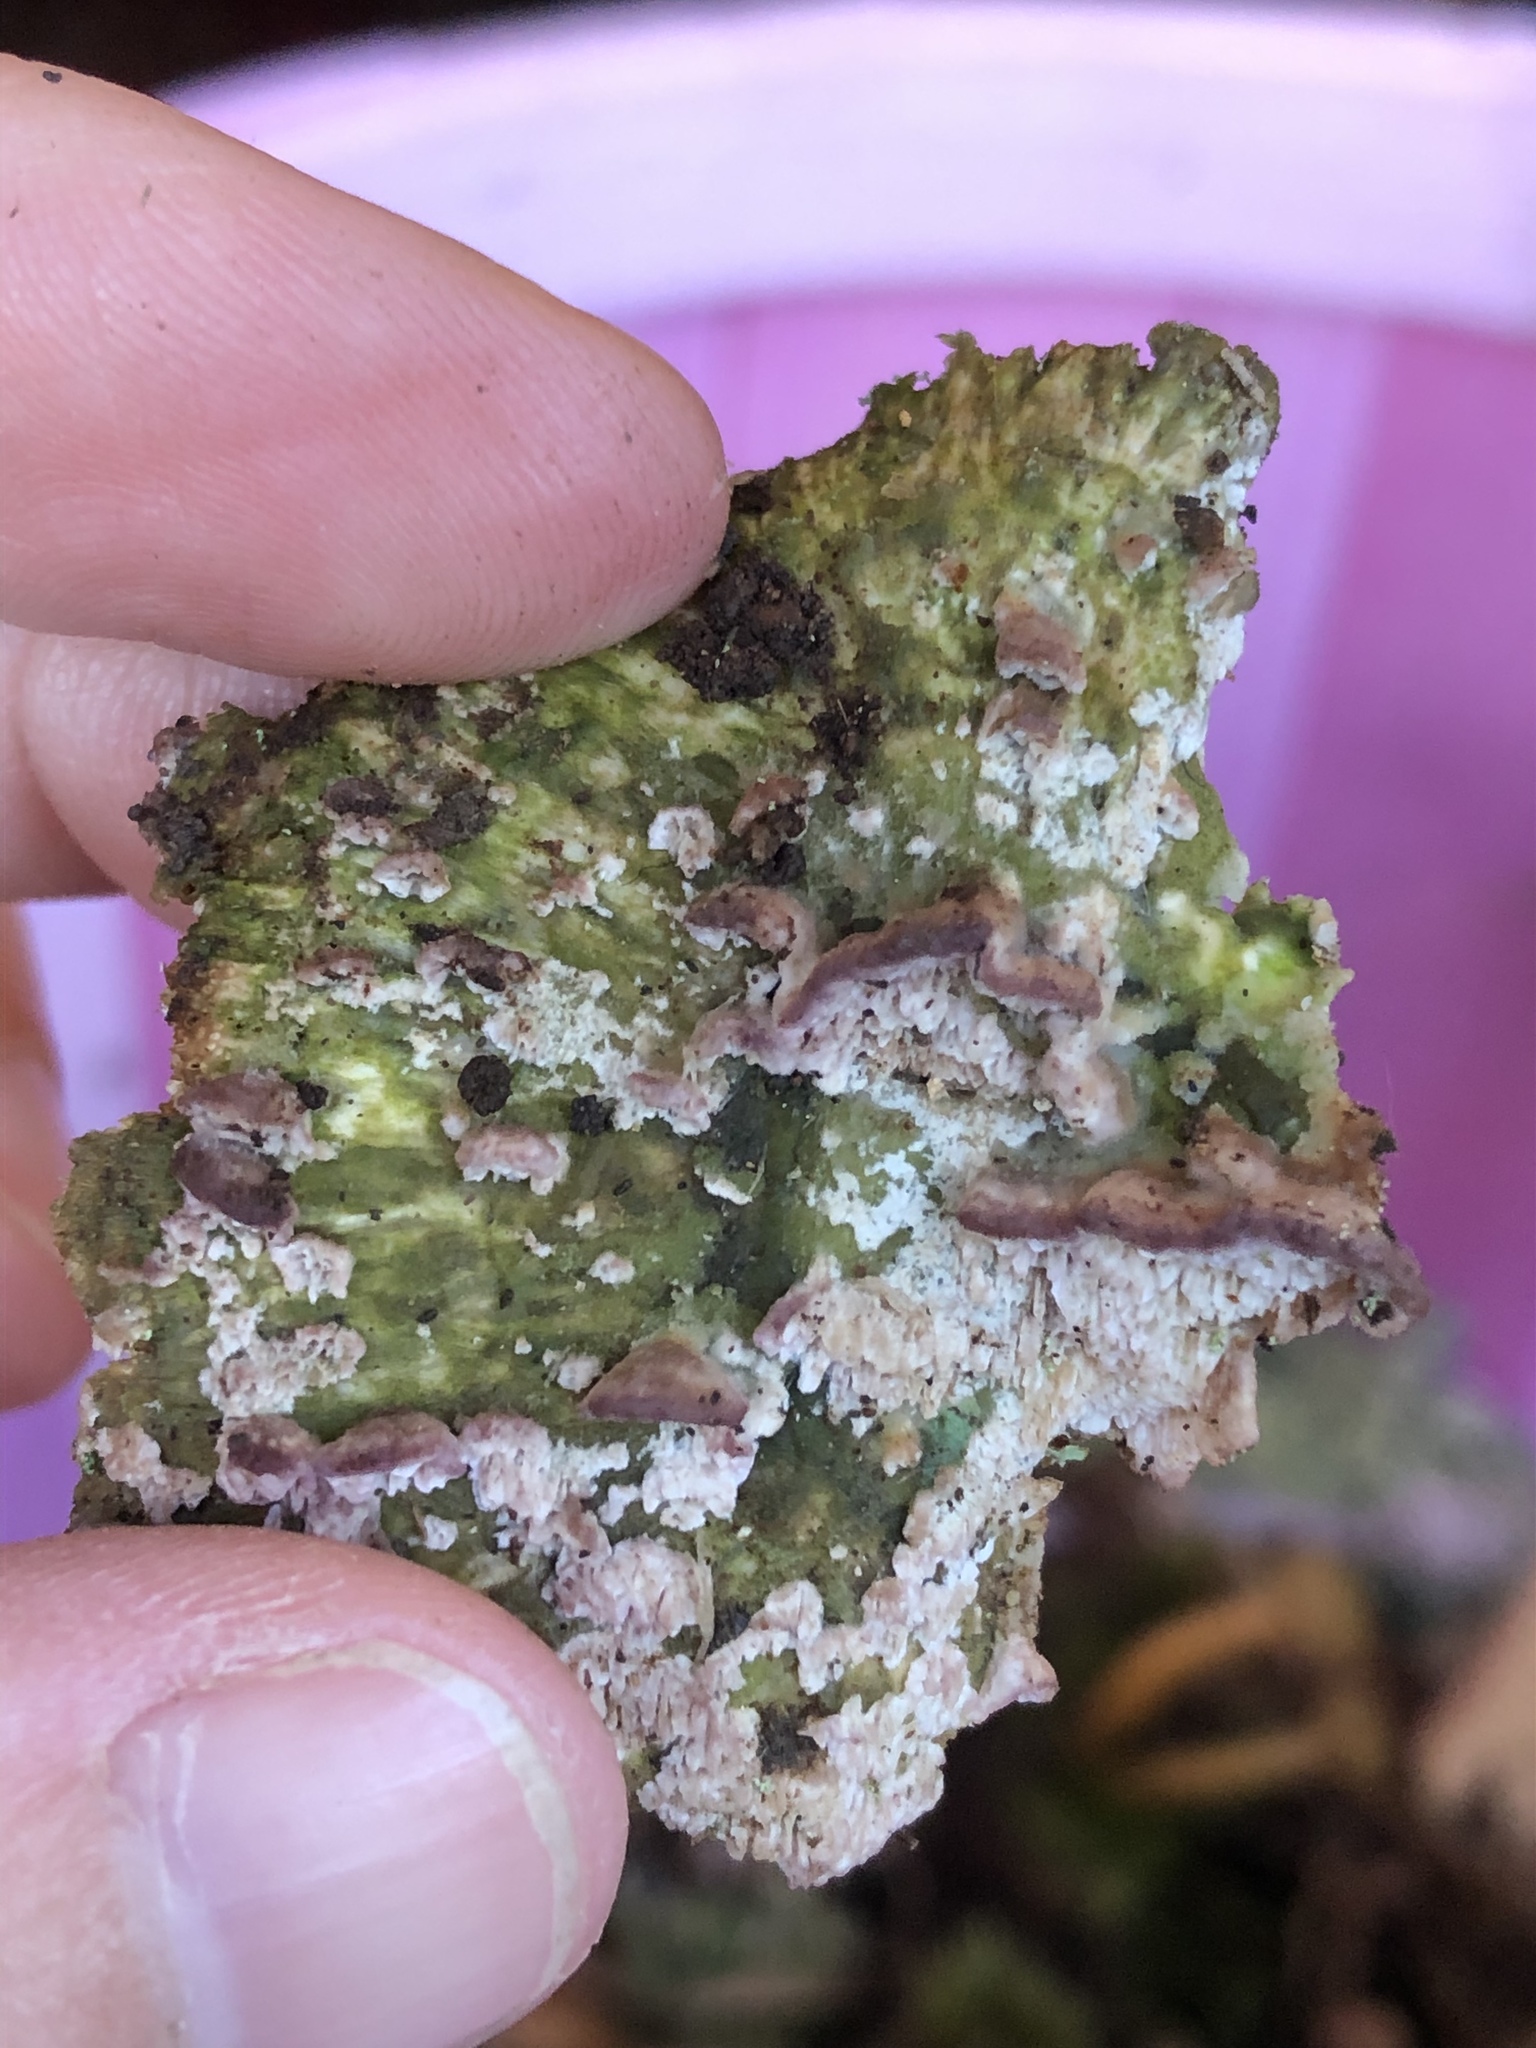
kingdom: Fungi
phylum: Basidiomycota
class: Agaricomycetes
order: Hymenochaetales
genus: Trichaptum
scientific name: Trichaptum biforme
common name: Violet-toothed polypore
